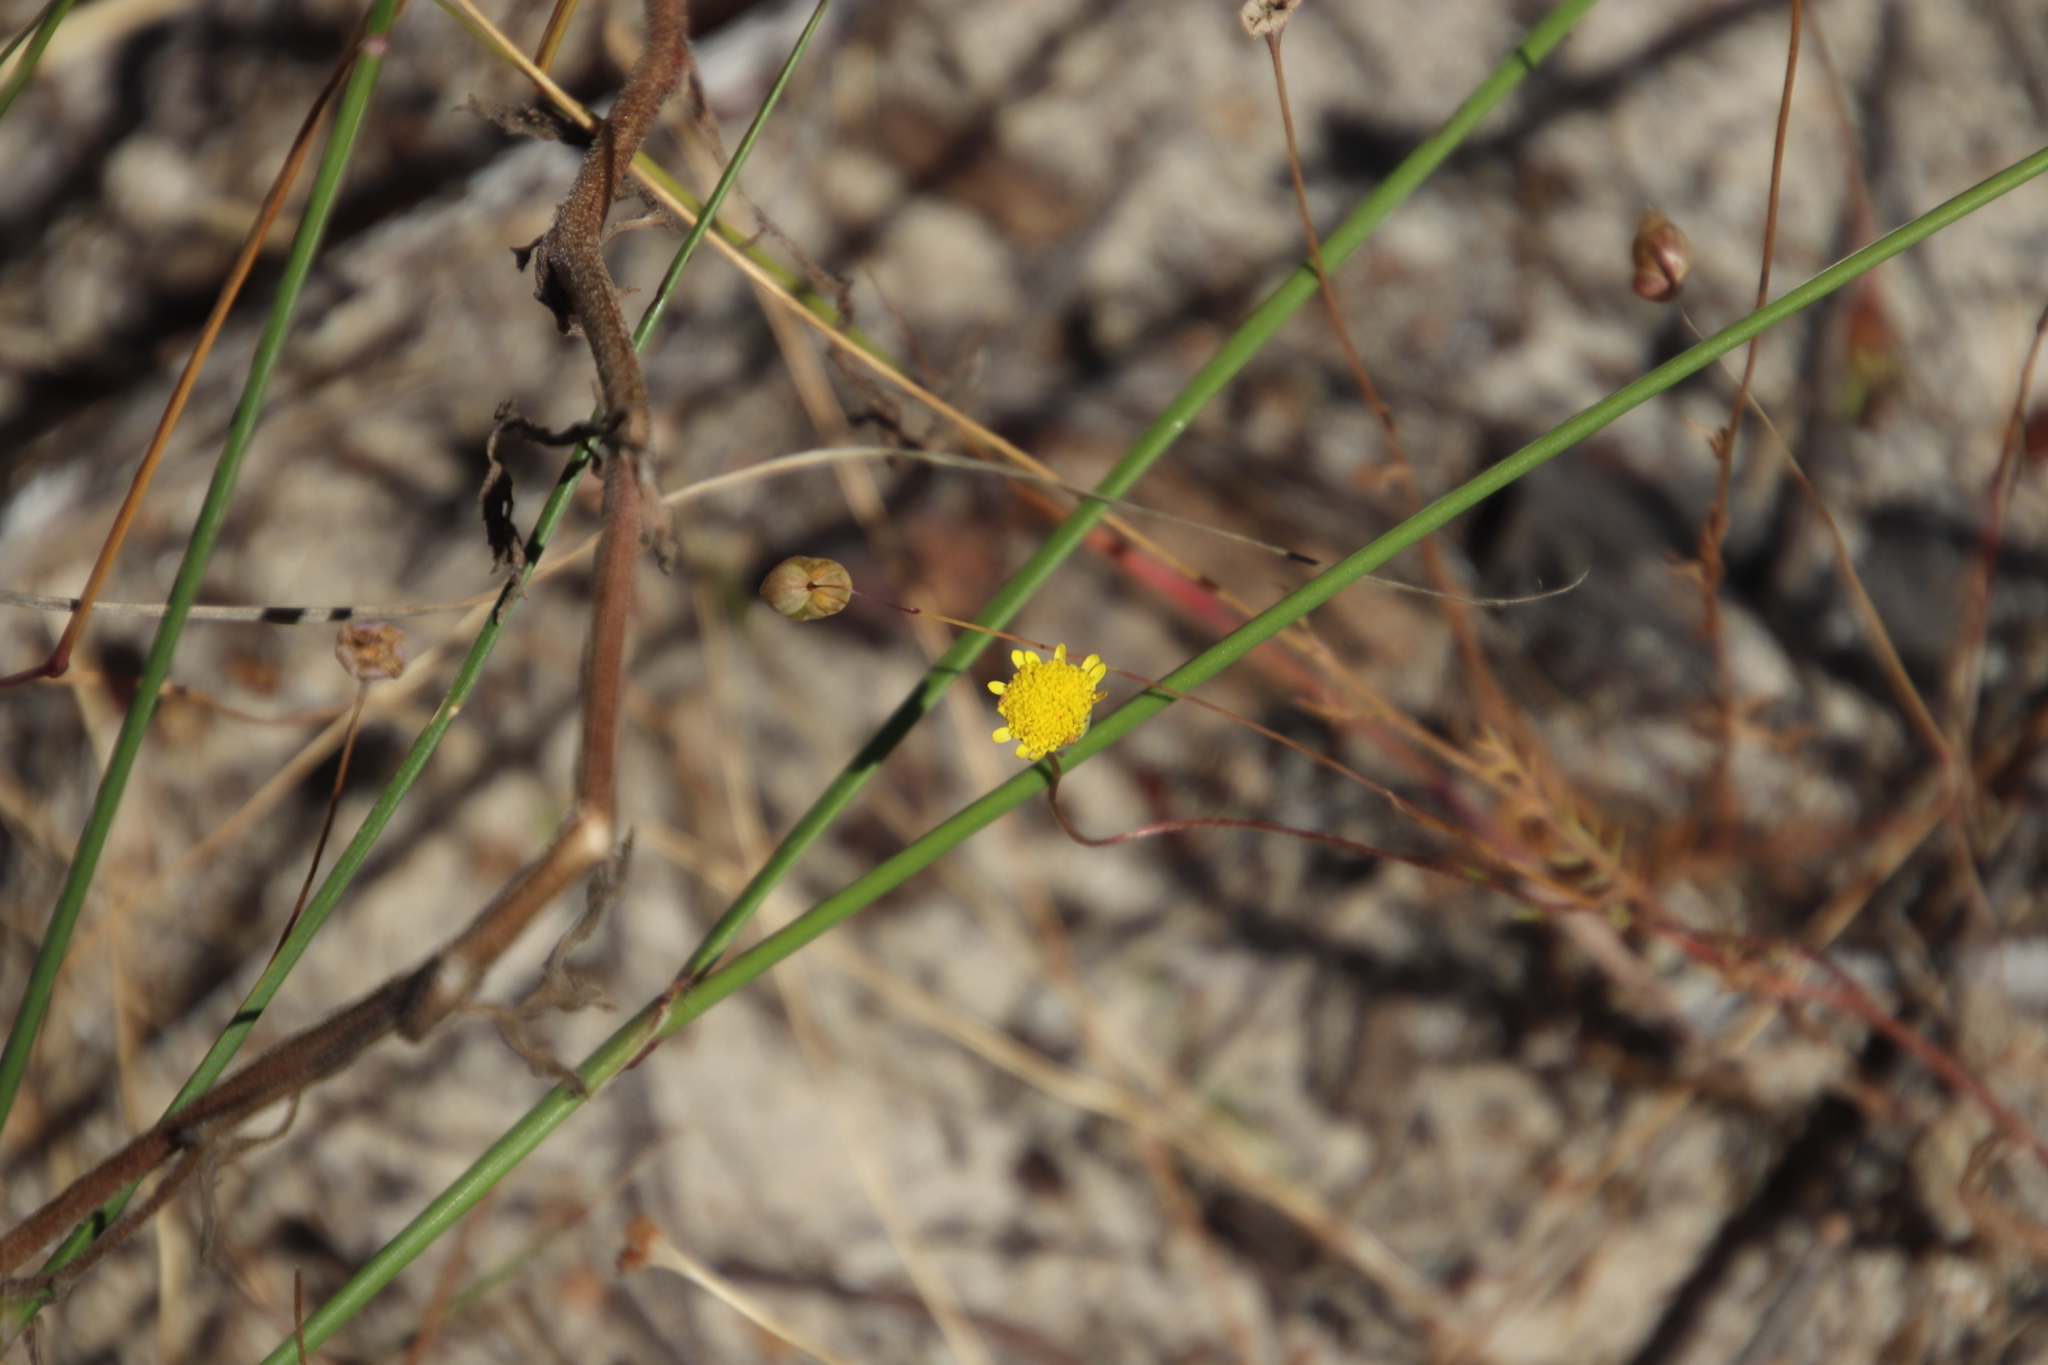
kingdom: Plantae
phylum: Tracheophyta
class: Magnoliopsida
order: Asterales
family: Asteraceae
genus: Cotula
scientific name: Cotula pruinosa
